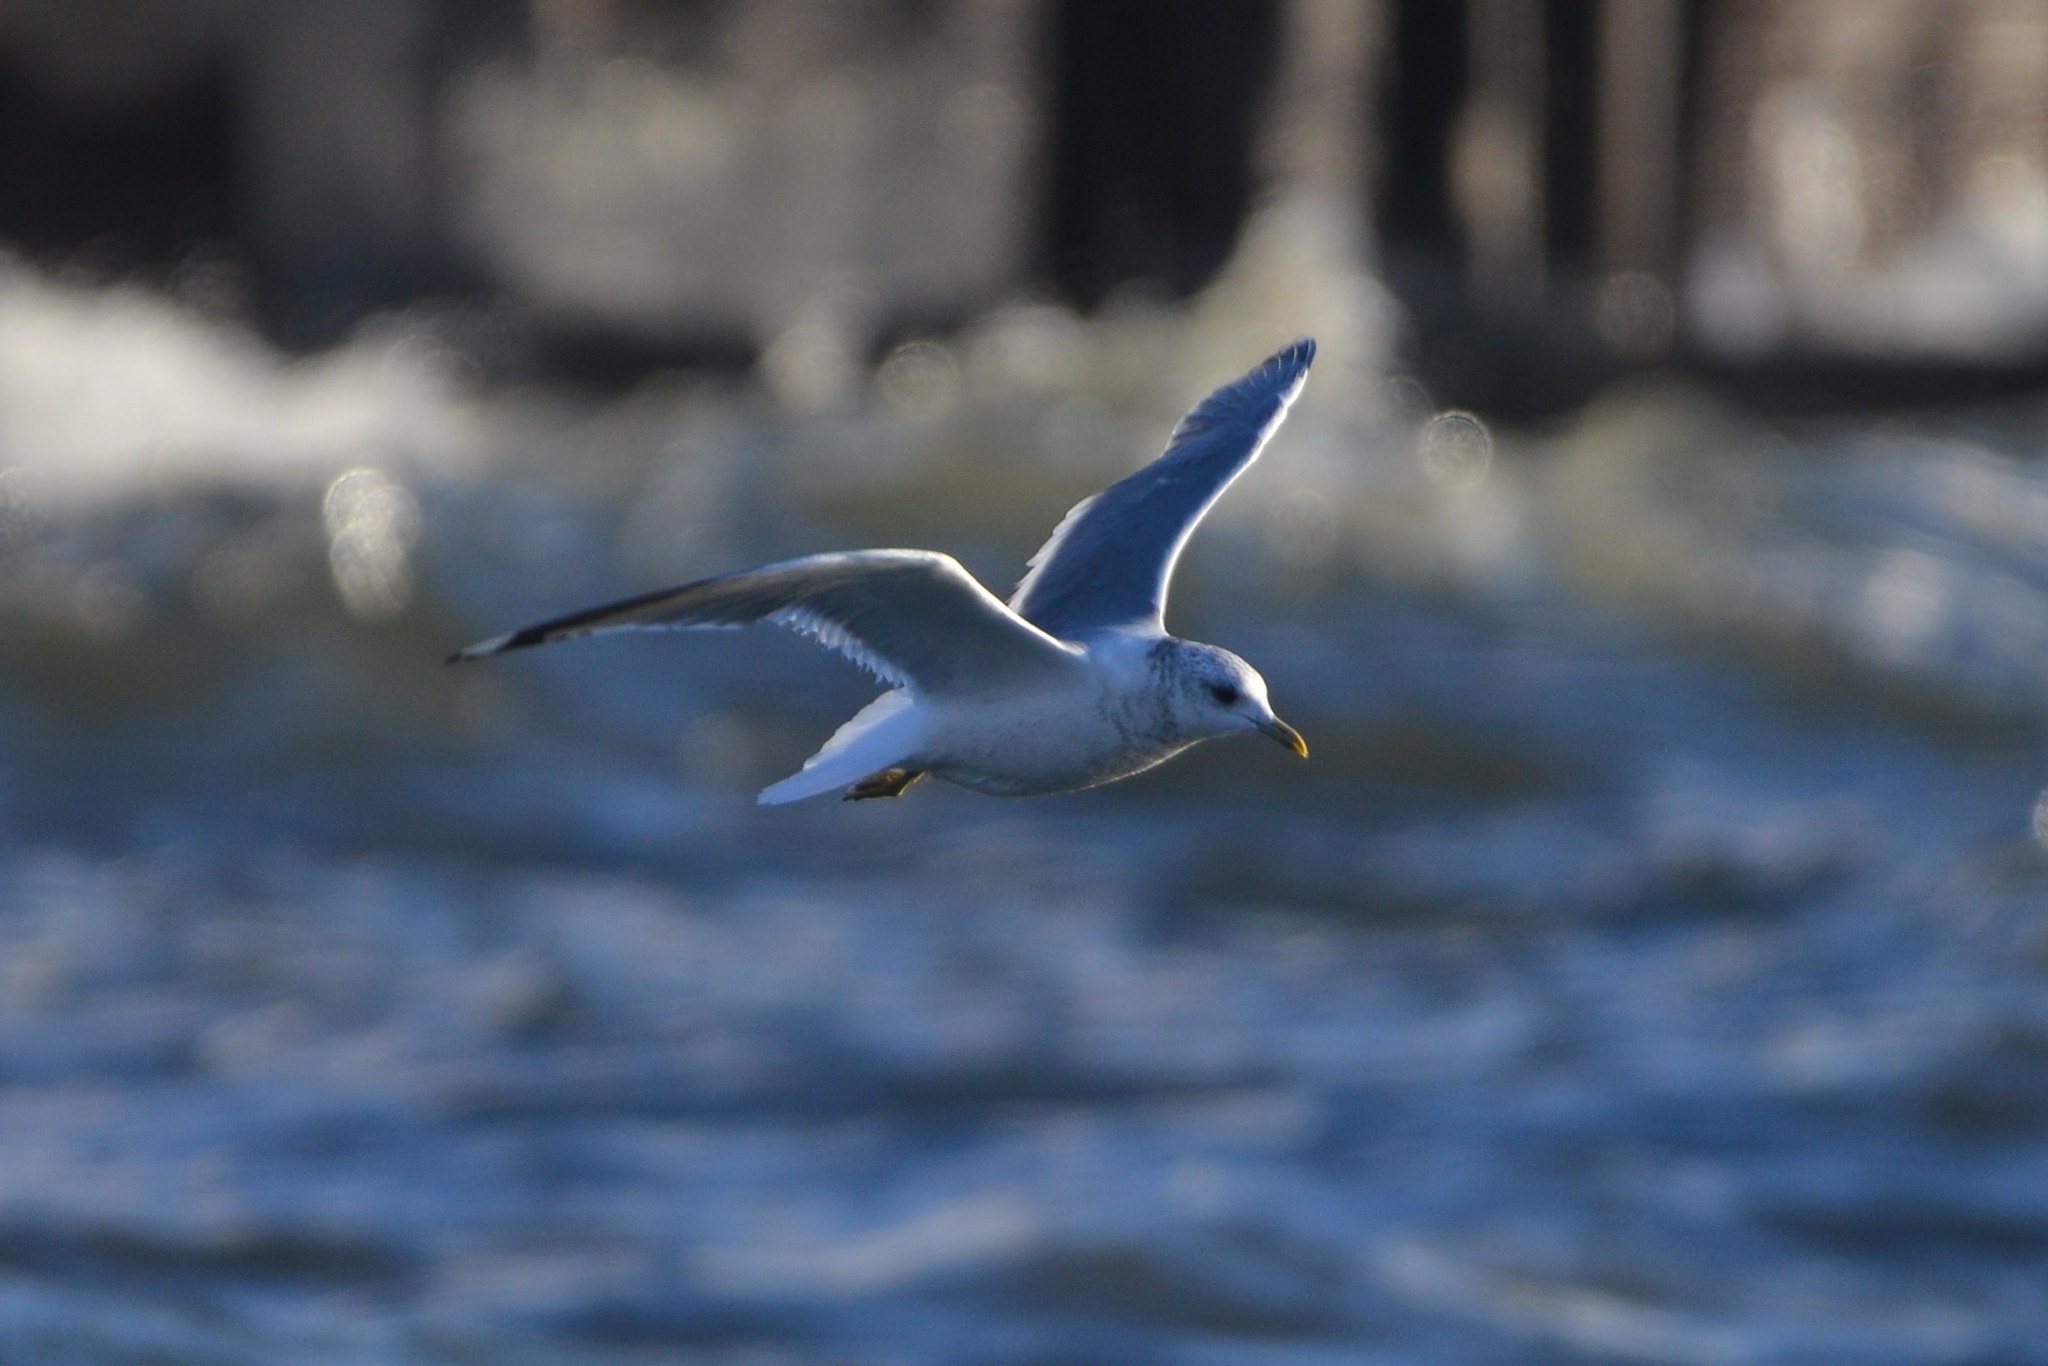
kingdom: Animalia
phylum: Chordata
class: Aves
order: Charadriiformes
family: Laridae
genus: Larus
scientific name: Larus canus
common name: Mew gull
